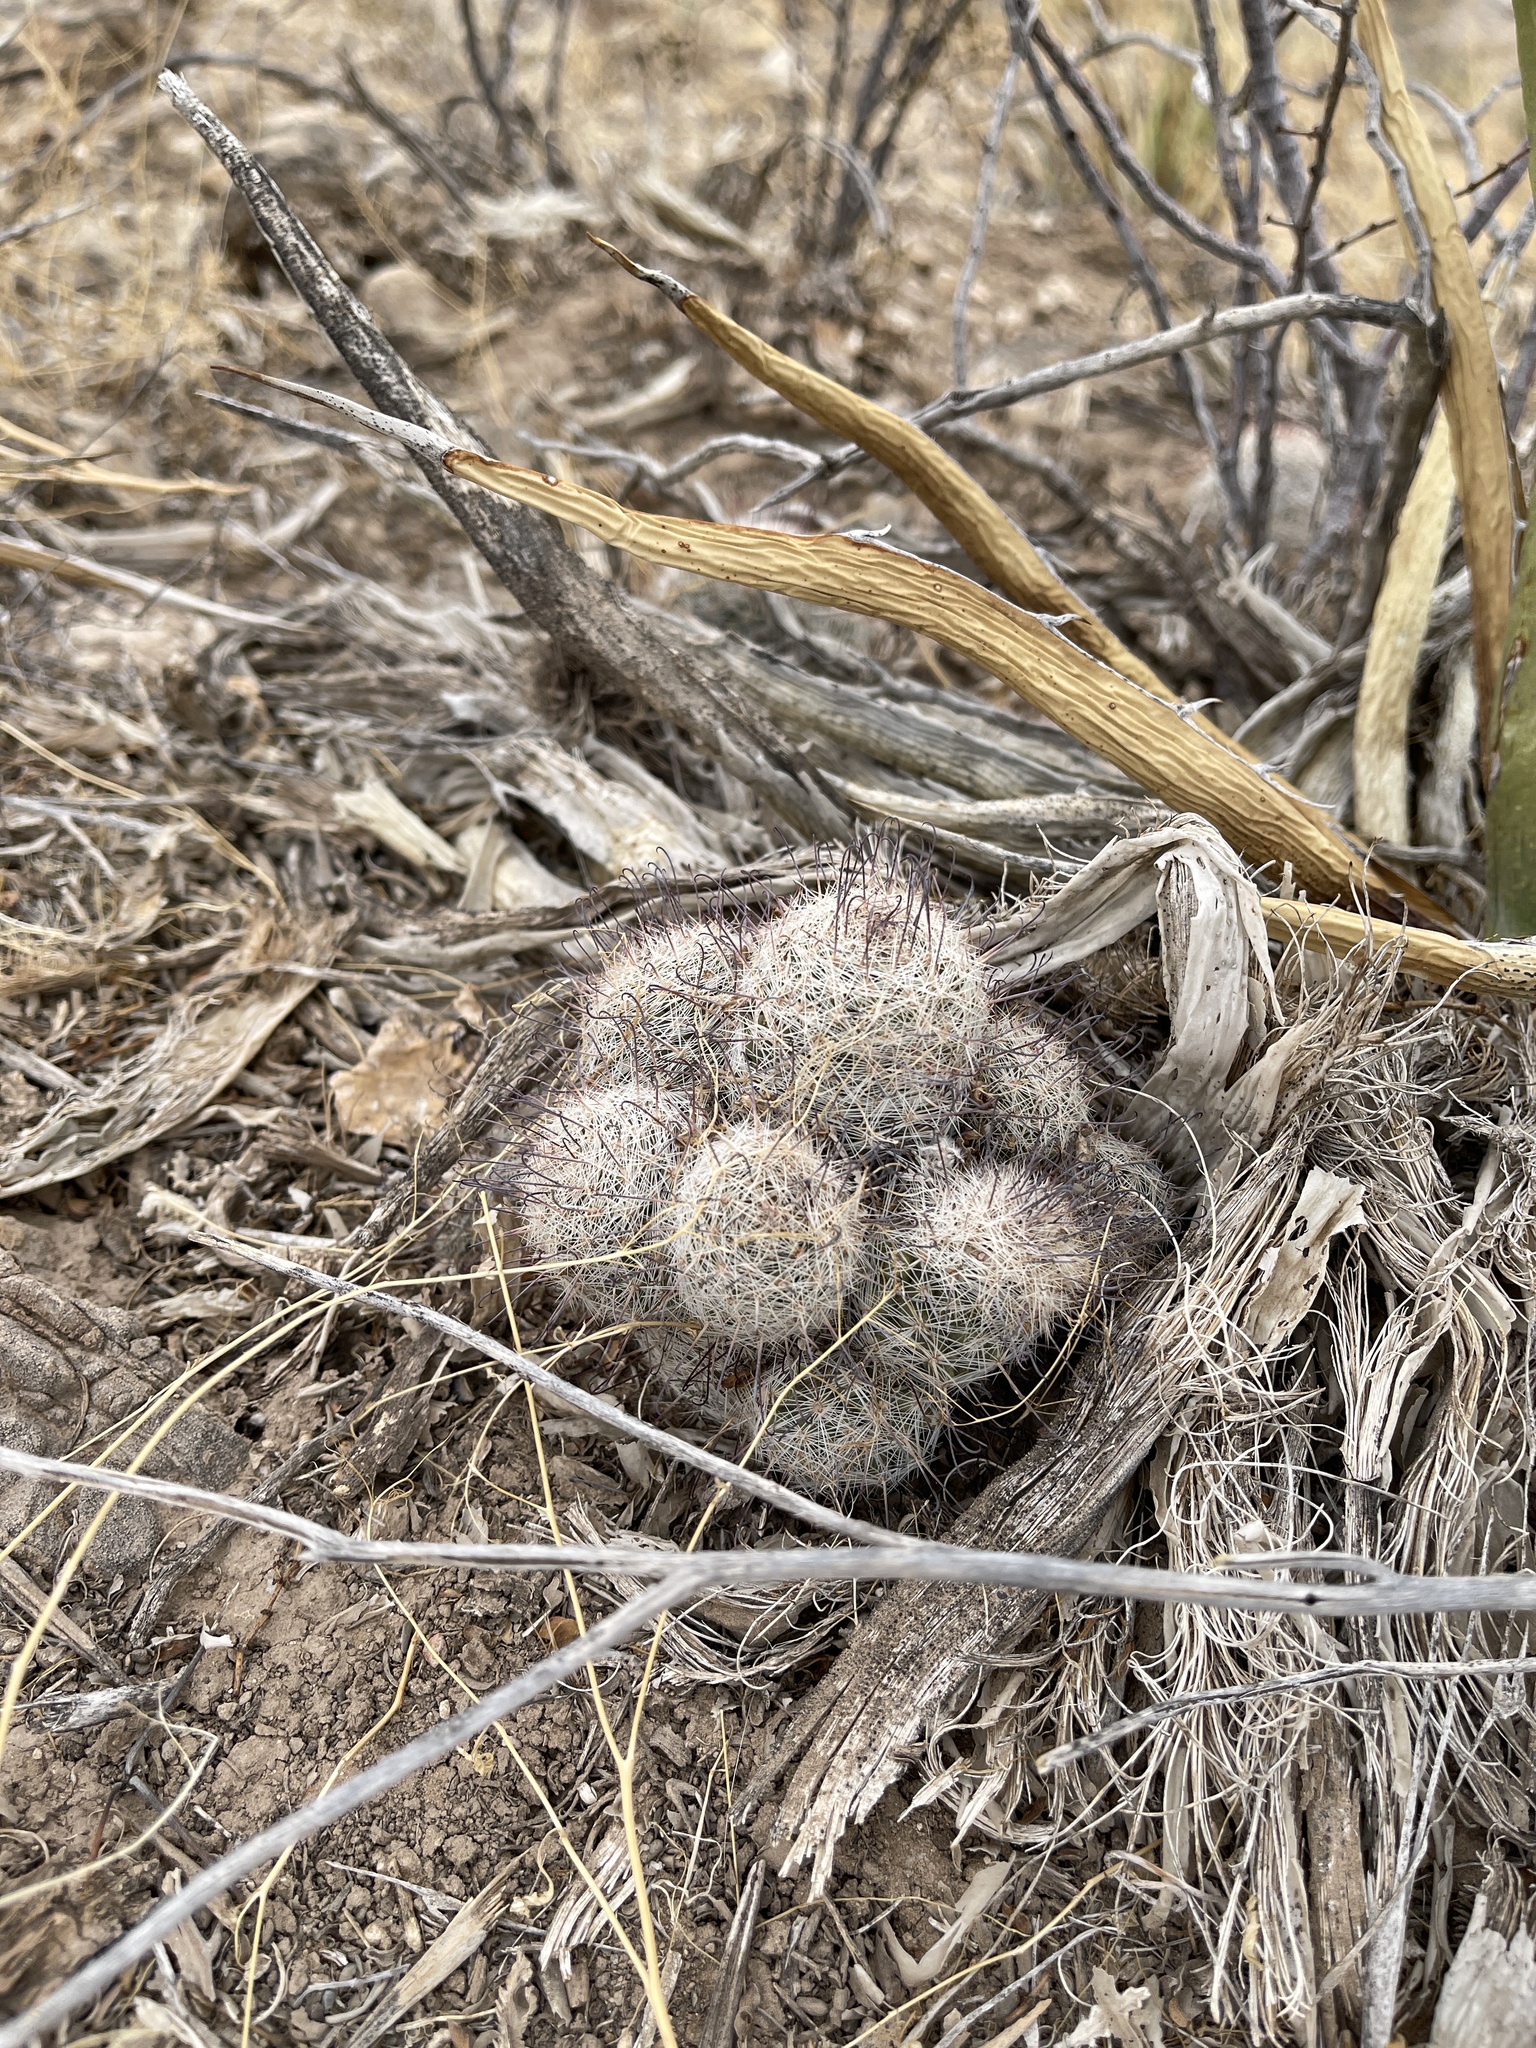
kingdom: Plantae
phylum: Tracheophyta
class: Magnoliopsida
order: Caryophyllales
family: Cactaceae
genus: Cochemiea
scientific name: Cochemiea grahamii
